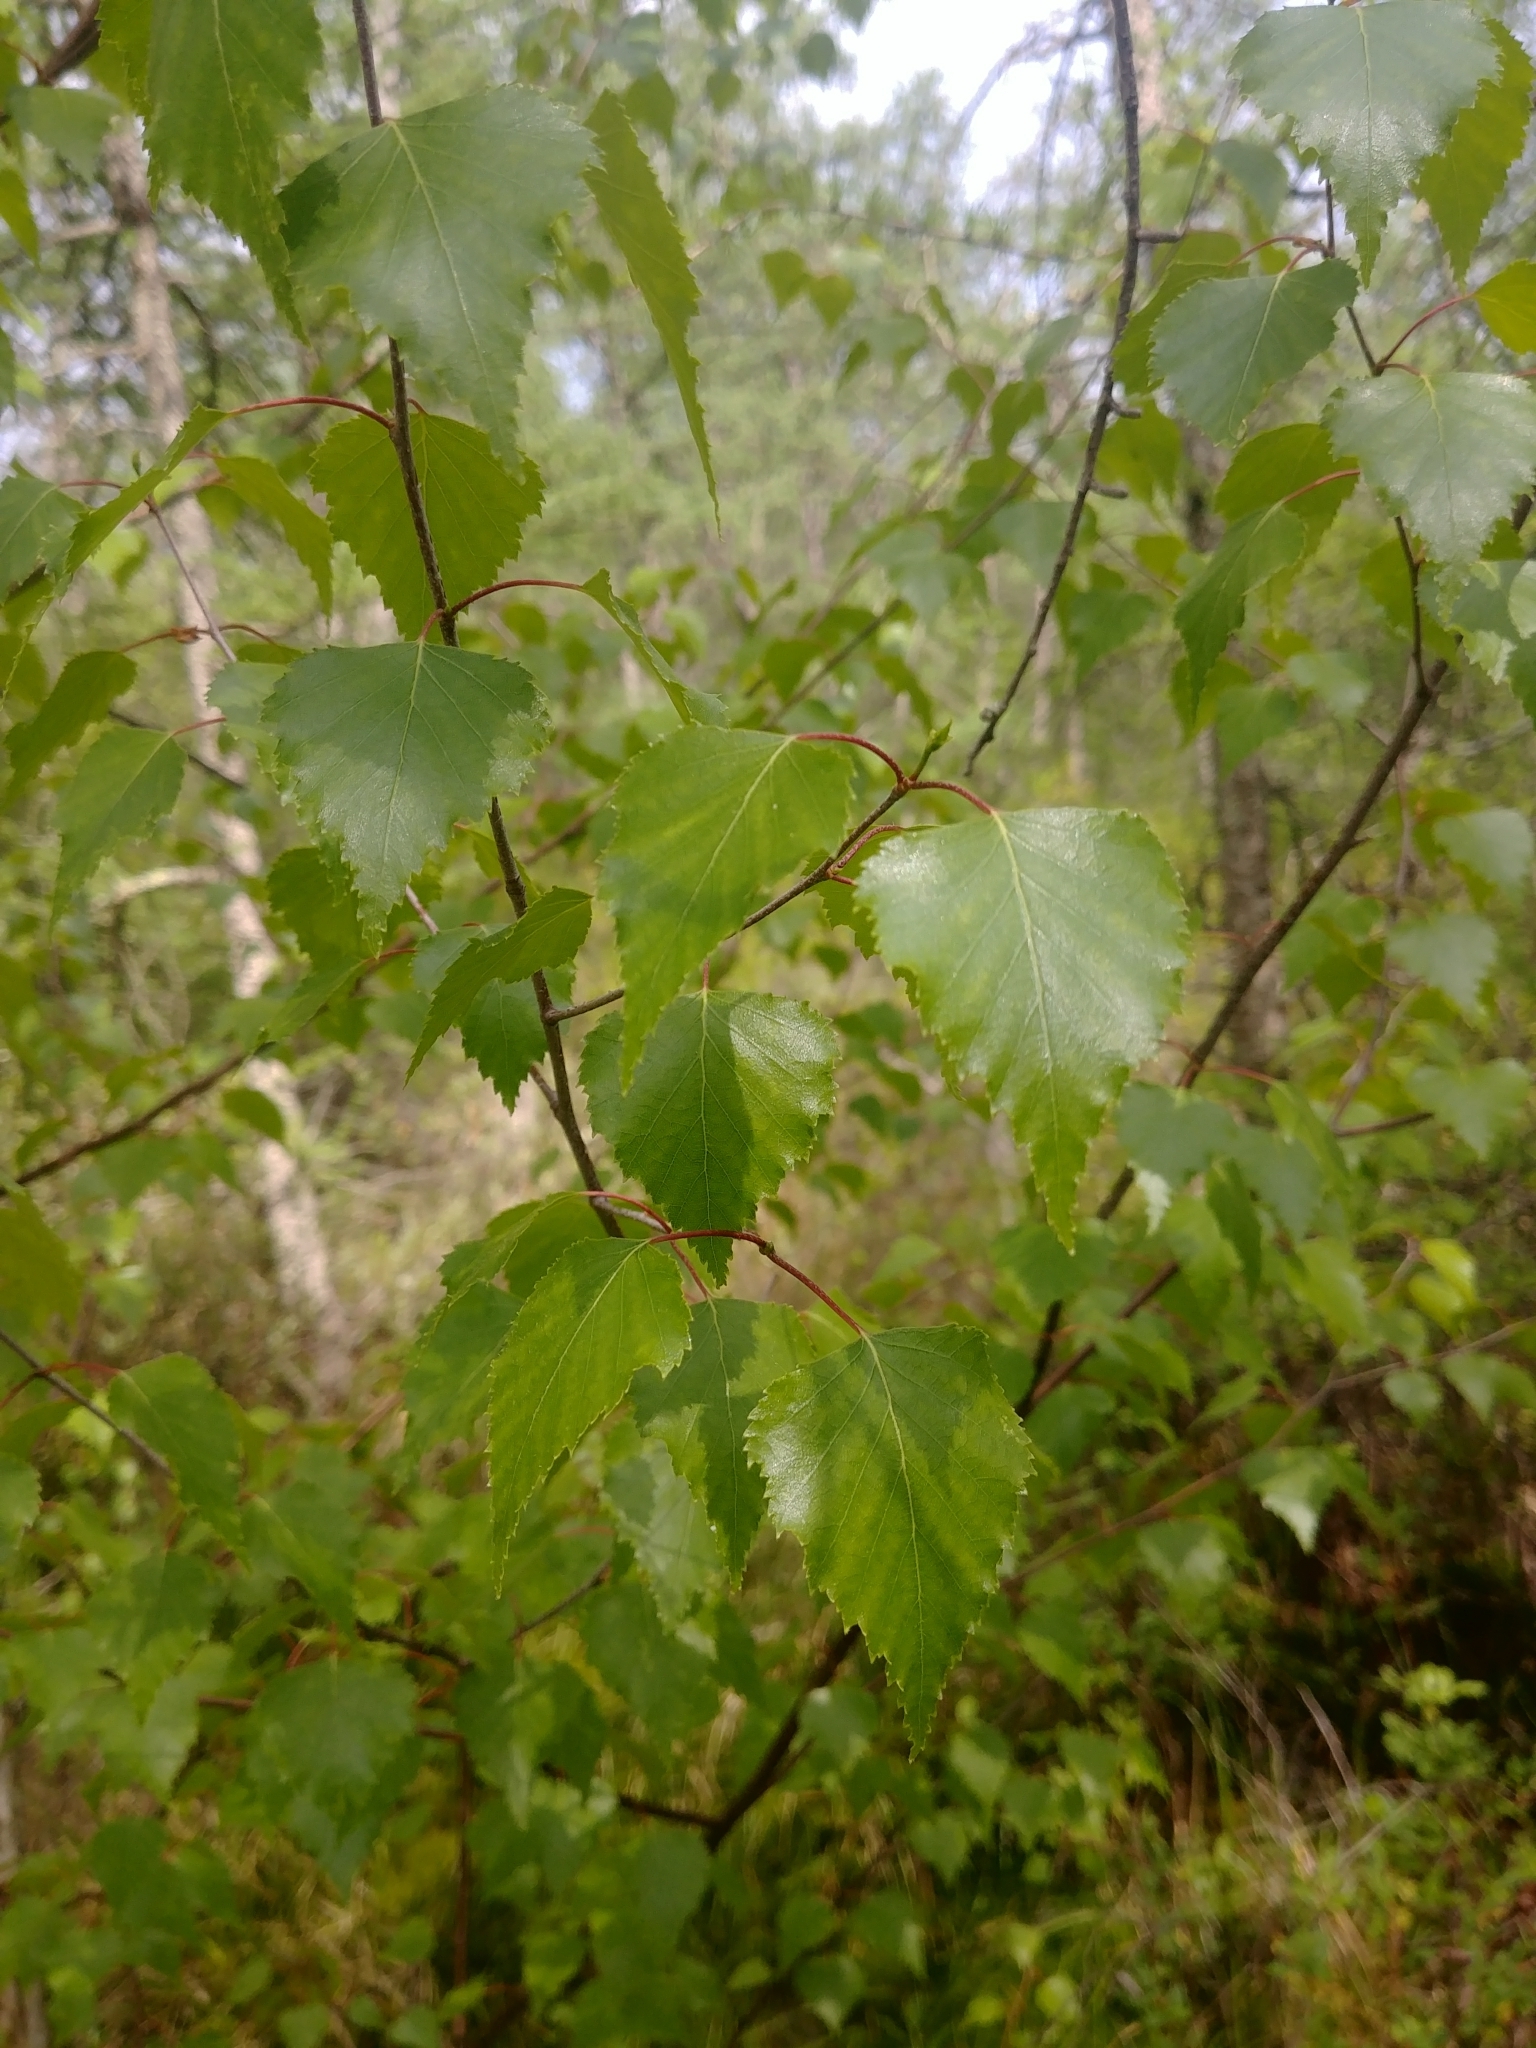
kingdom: Plantae
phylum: Tracheophyta
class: Magnoliopsida
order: Fagales
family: Betulaceae
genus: Betula
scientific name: Betula nigra
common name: Black birch
